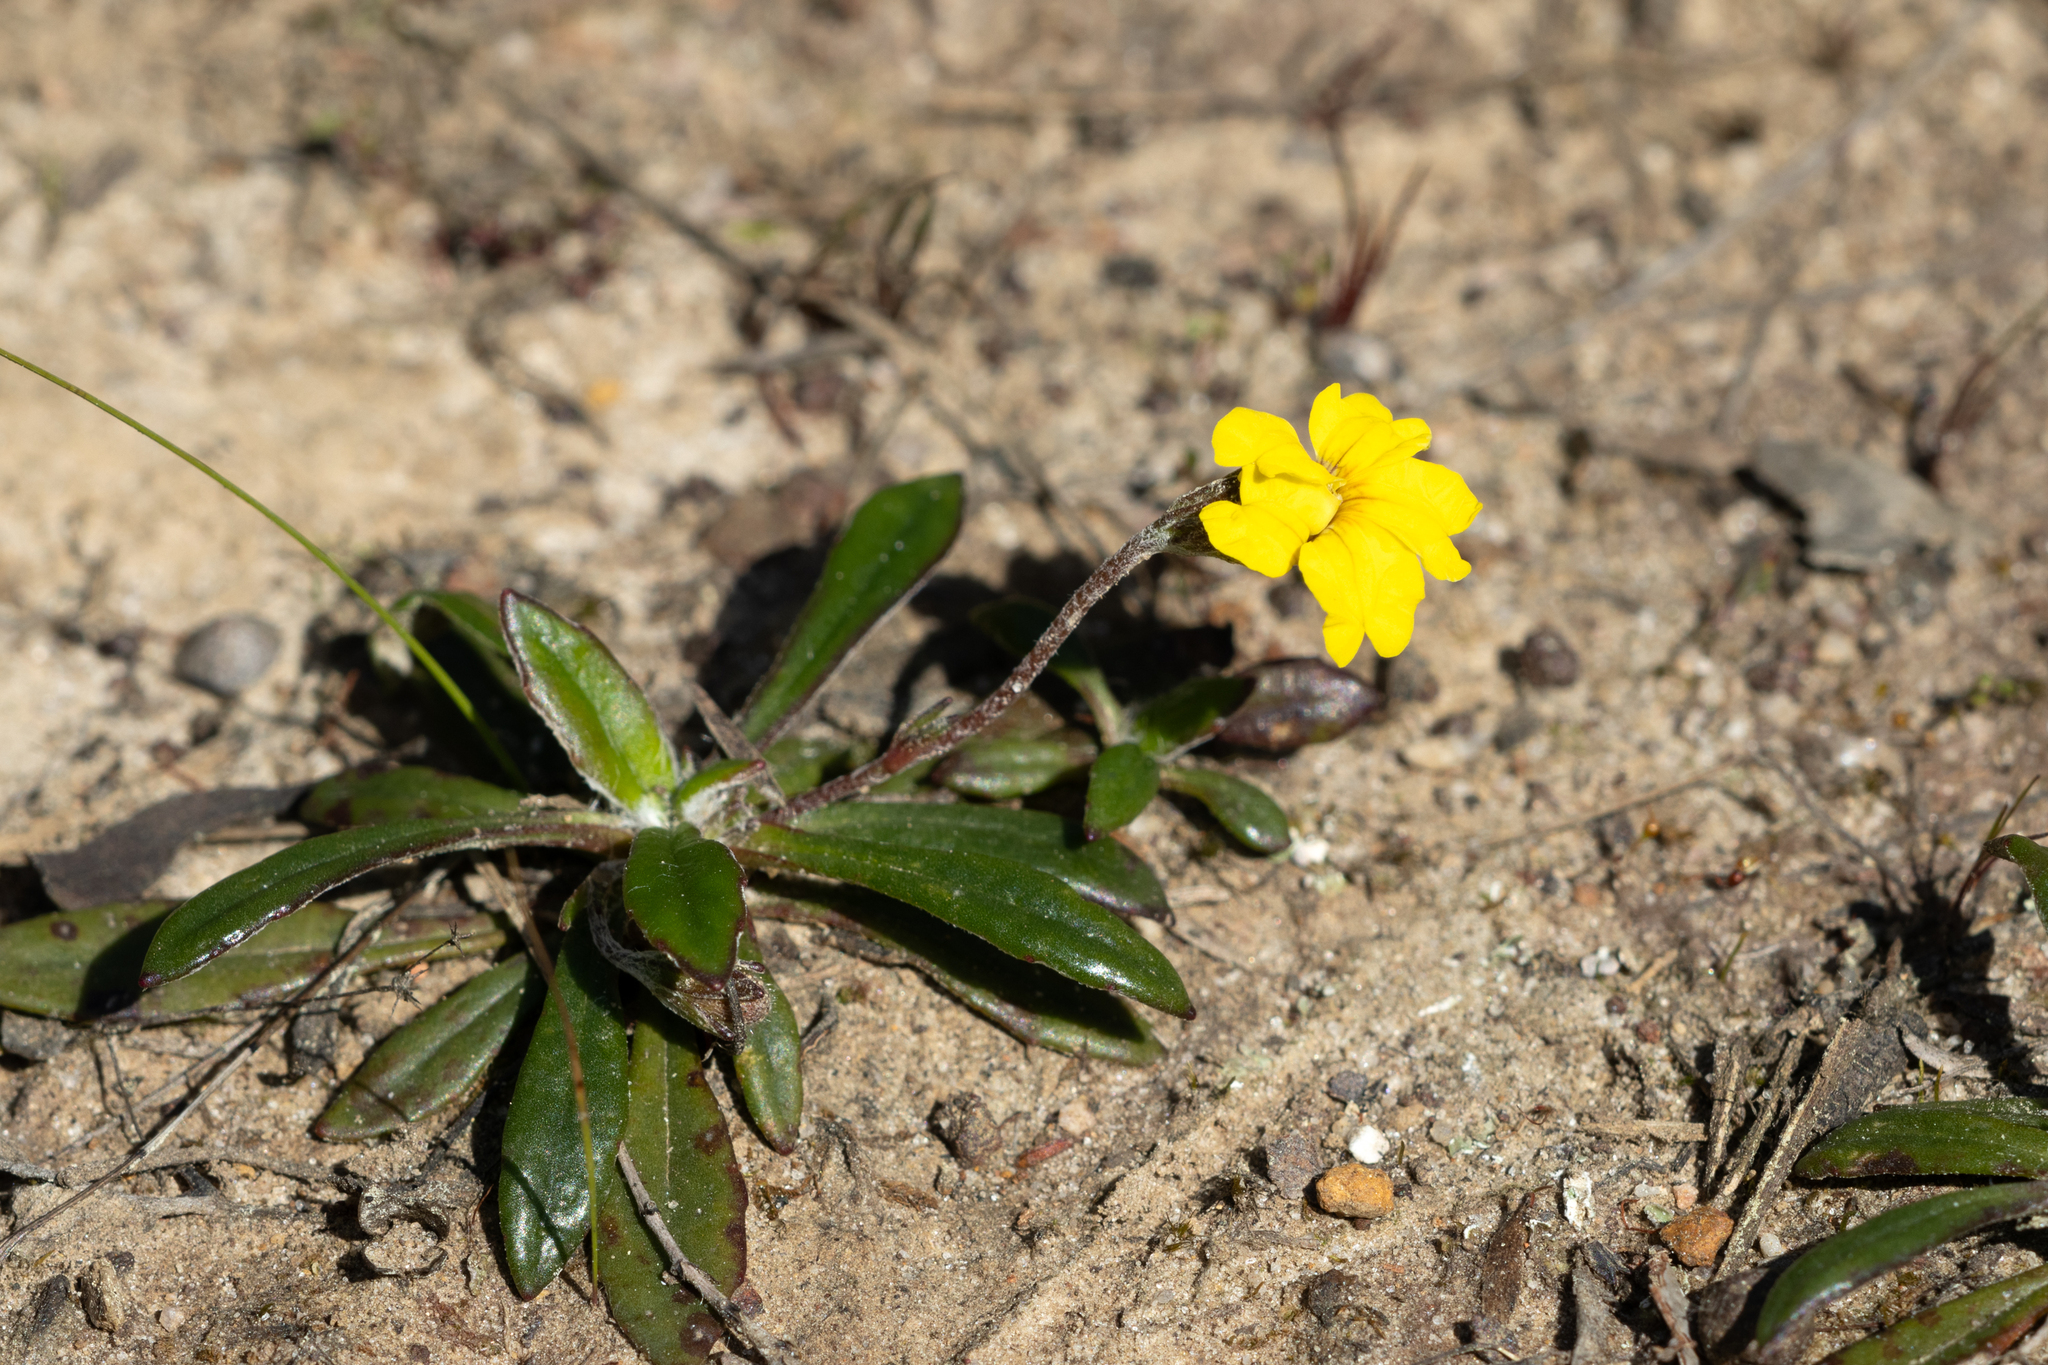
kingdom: Plantae
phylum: Tracheophyta
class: Magnoliopsida
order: Asterales
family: Goodeniaceae
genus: Goodenia
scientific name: Goodenia blackiana
